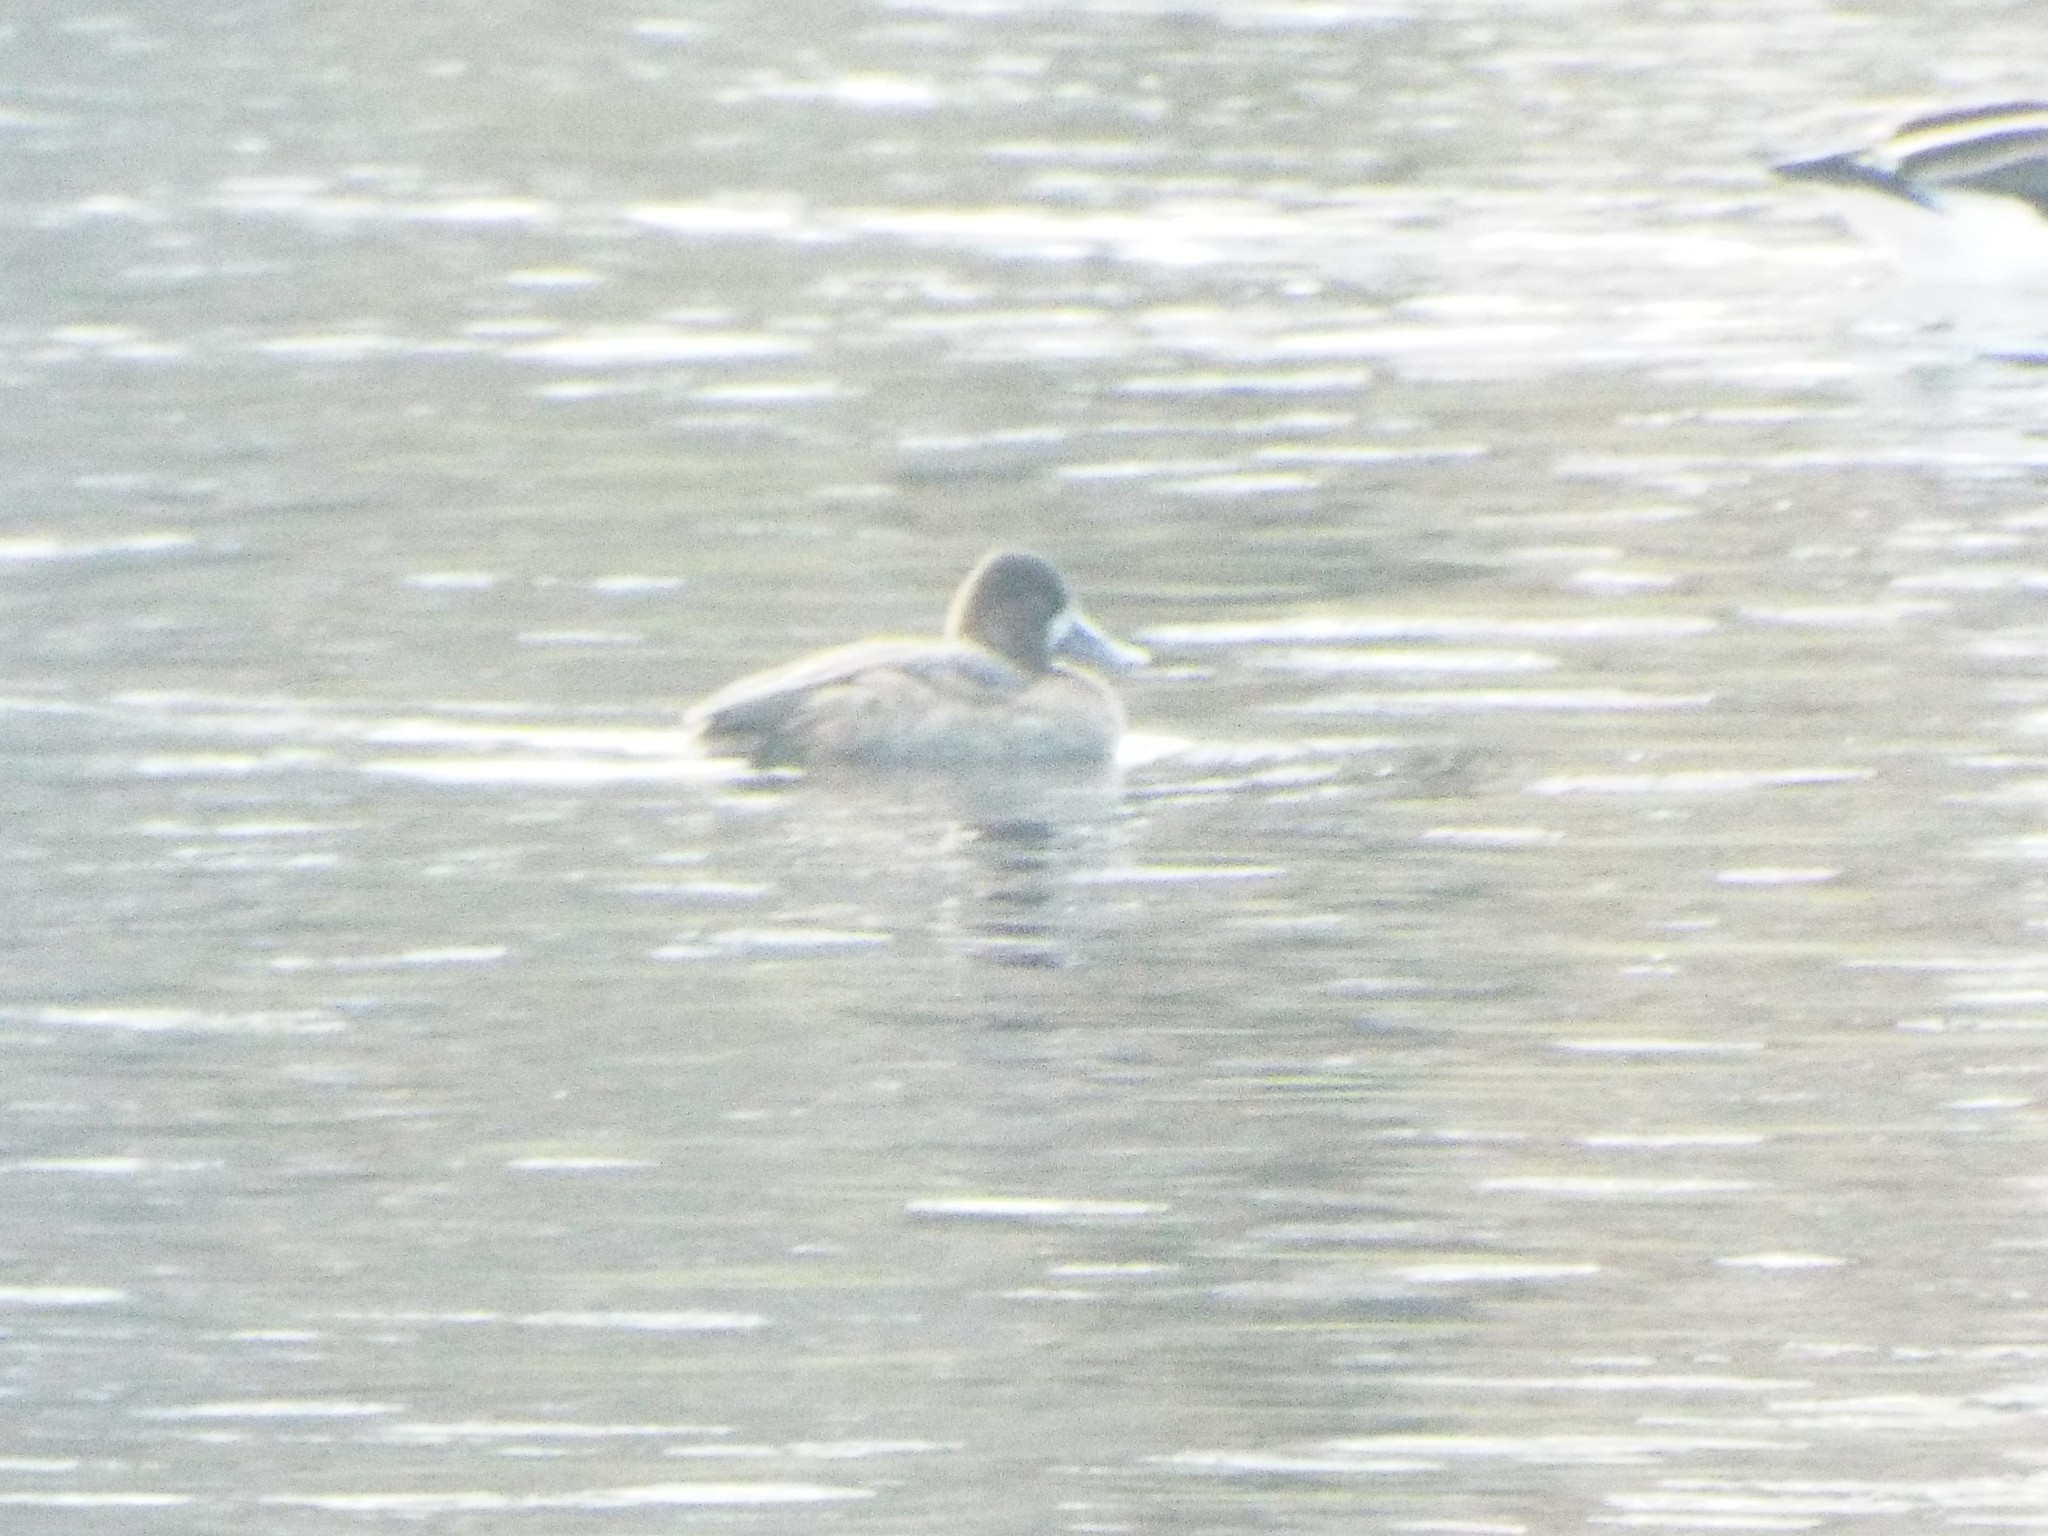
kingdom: Animalia
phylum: Chordata
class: Aves
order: Anseriformes
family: Anatidae
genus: Aythya
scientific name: Aythya affinis
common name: Lesser scaup
